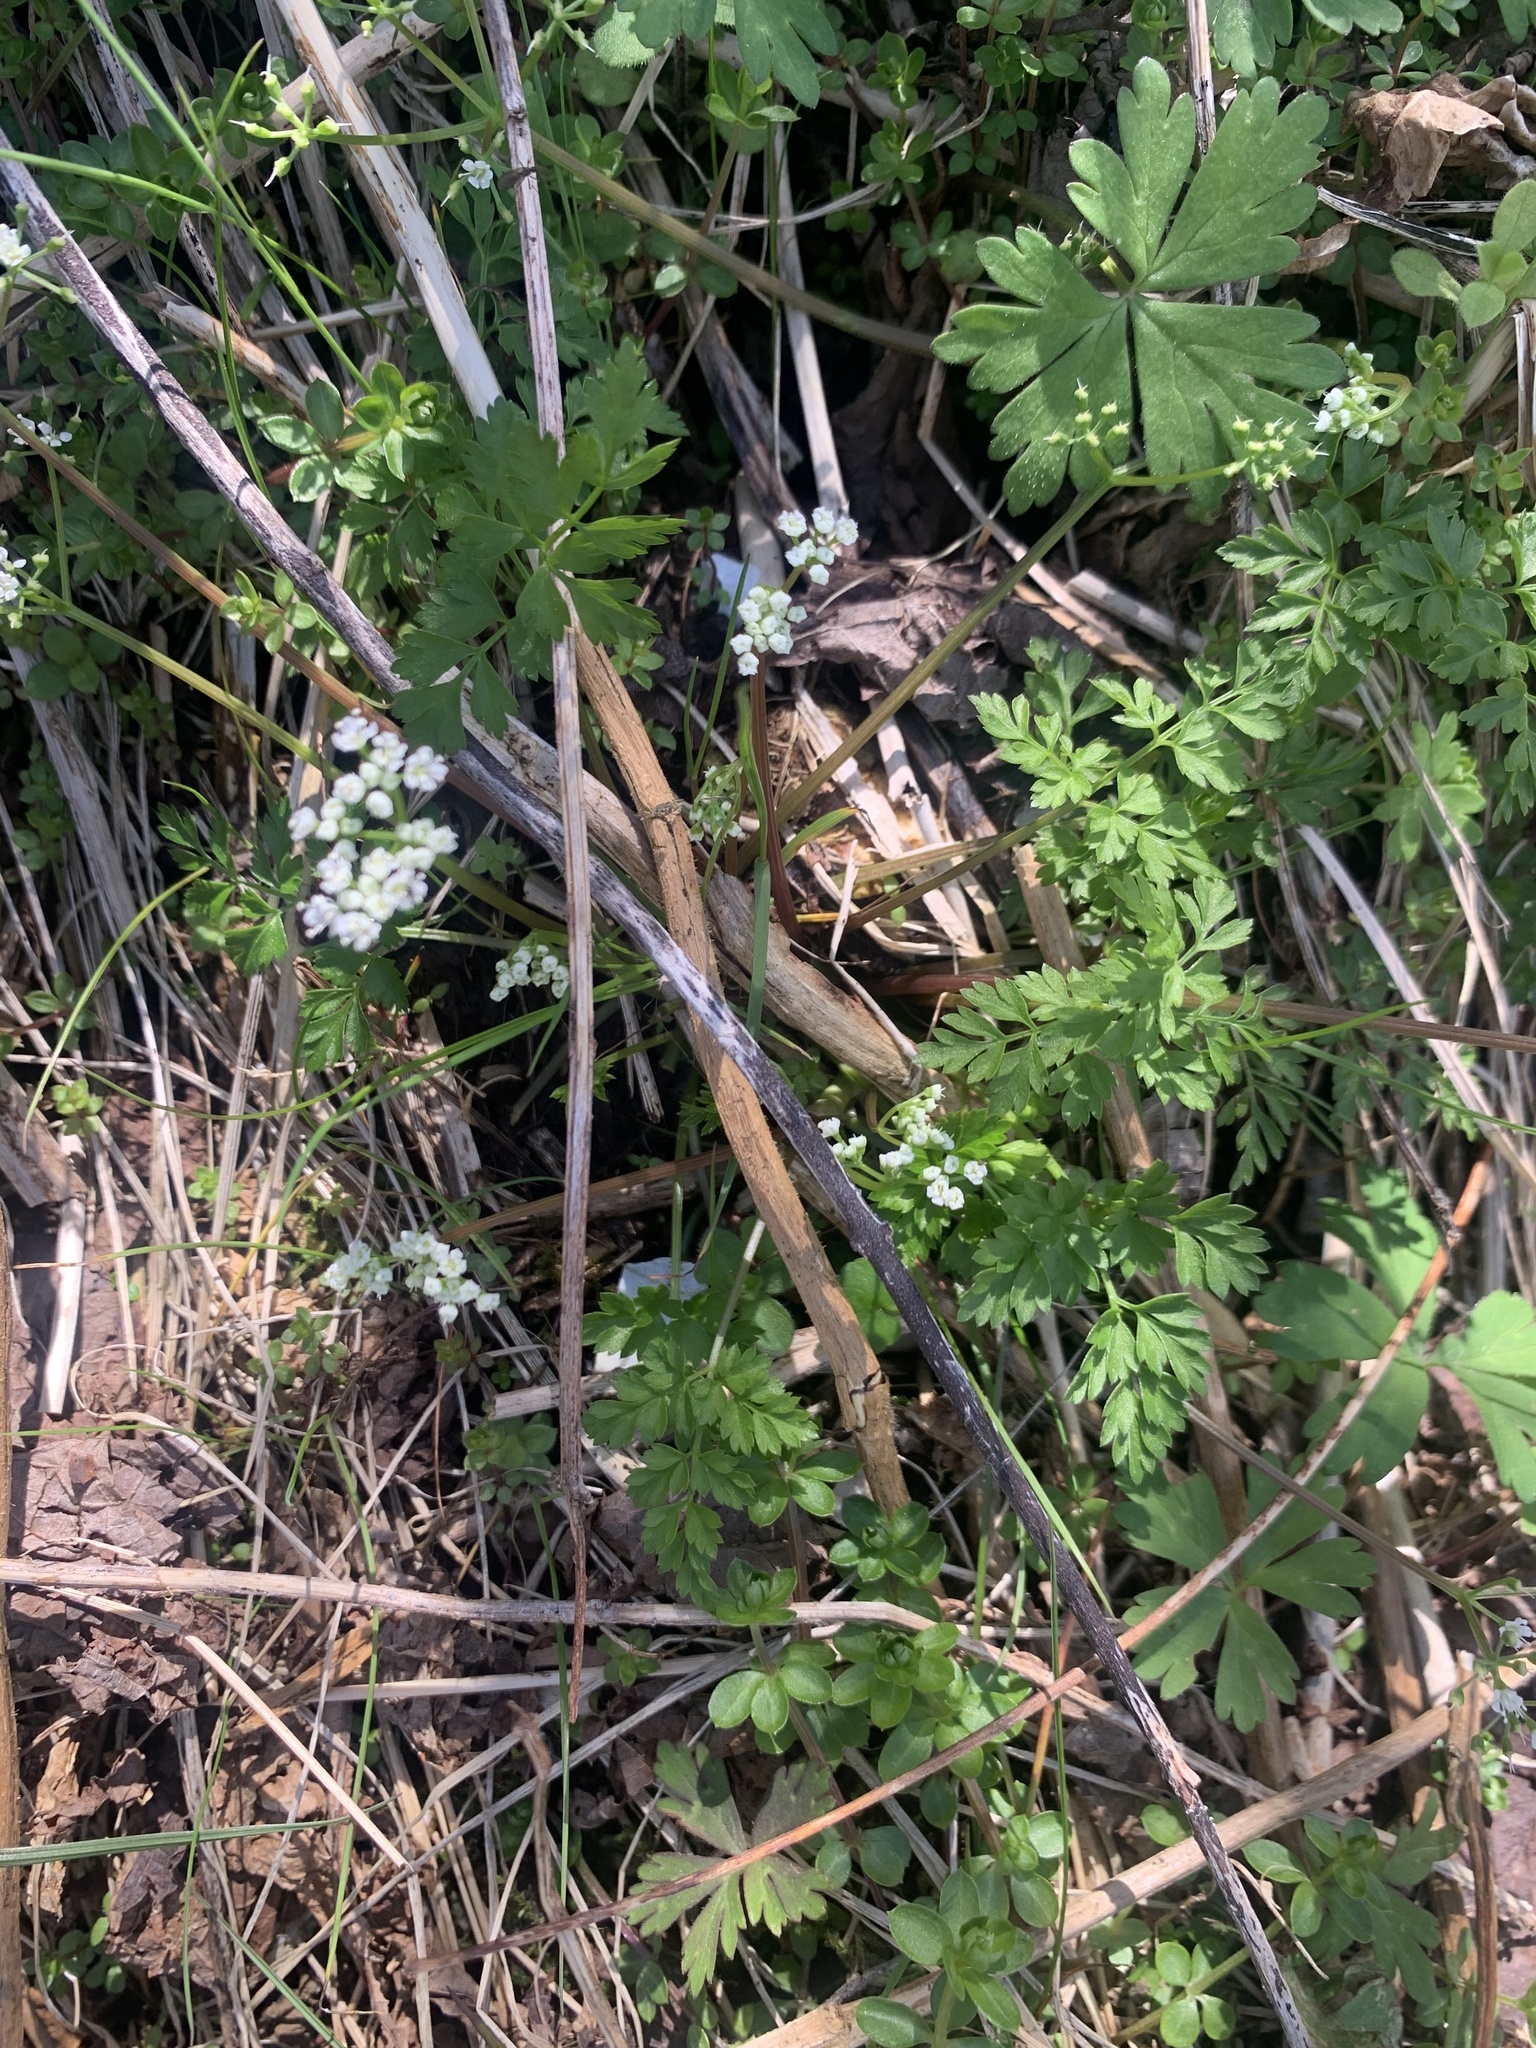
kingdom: Plantae
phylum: Tracheophyta
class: Magnoliopsida
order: Apiales
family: Apiaceae
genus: Aegopodium
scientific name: Aegopodium decumbens
